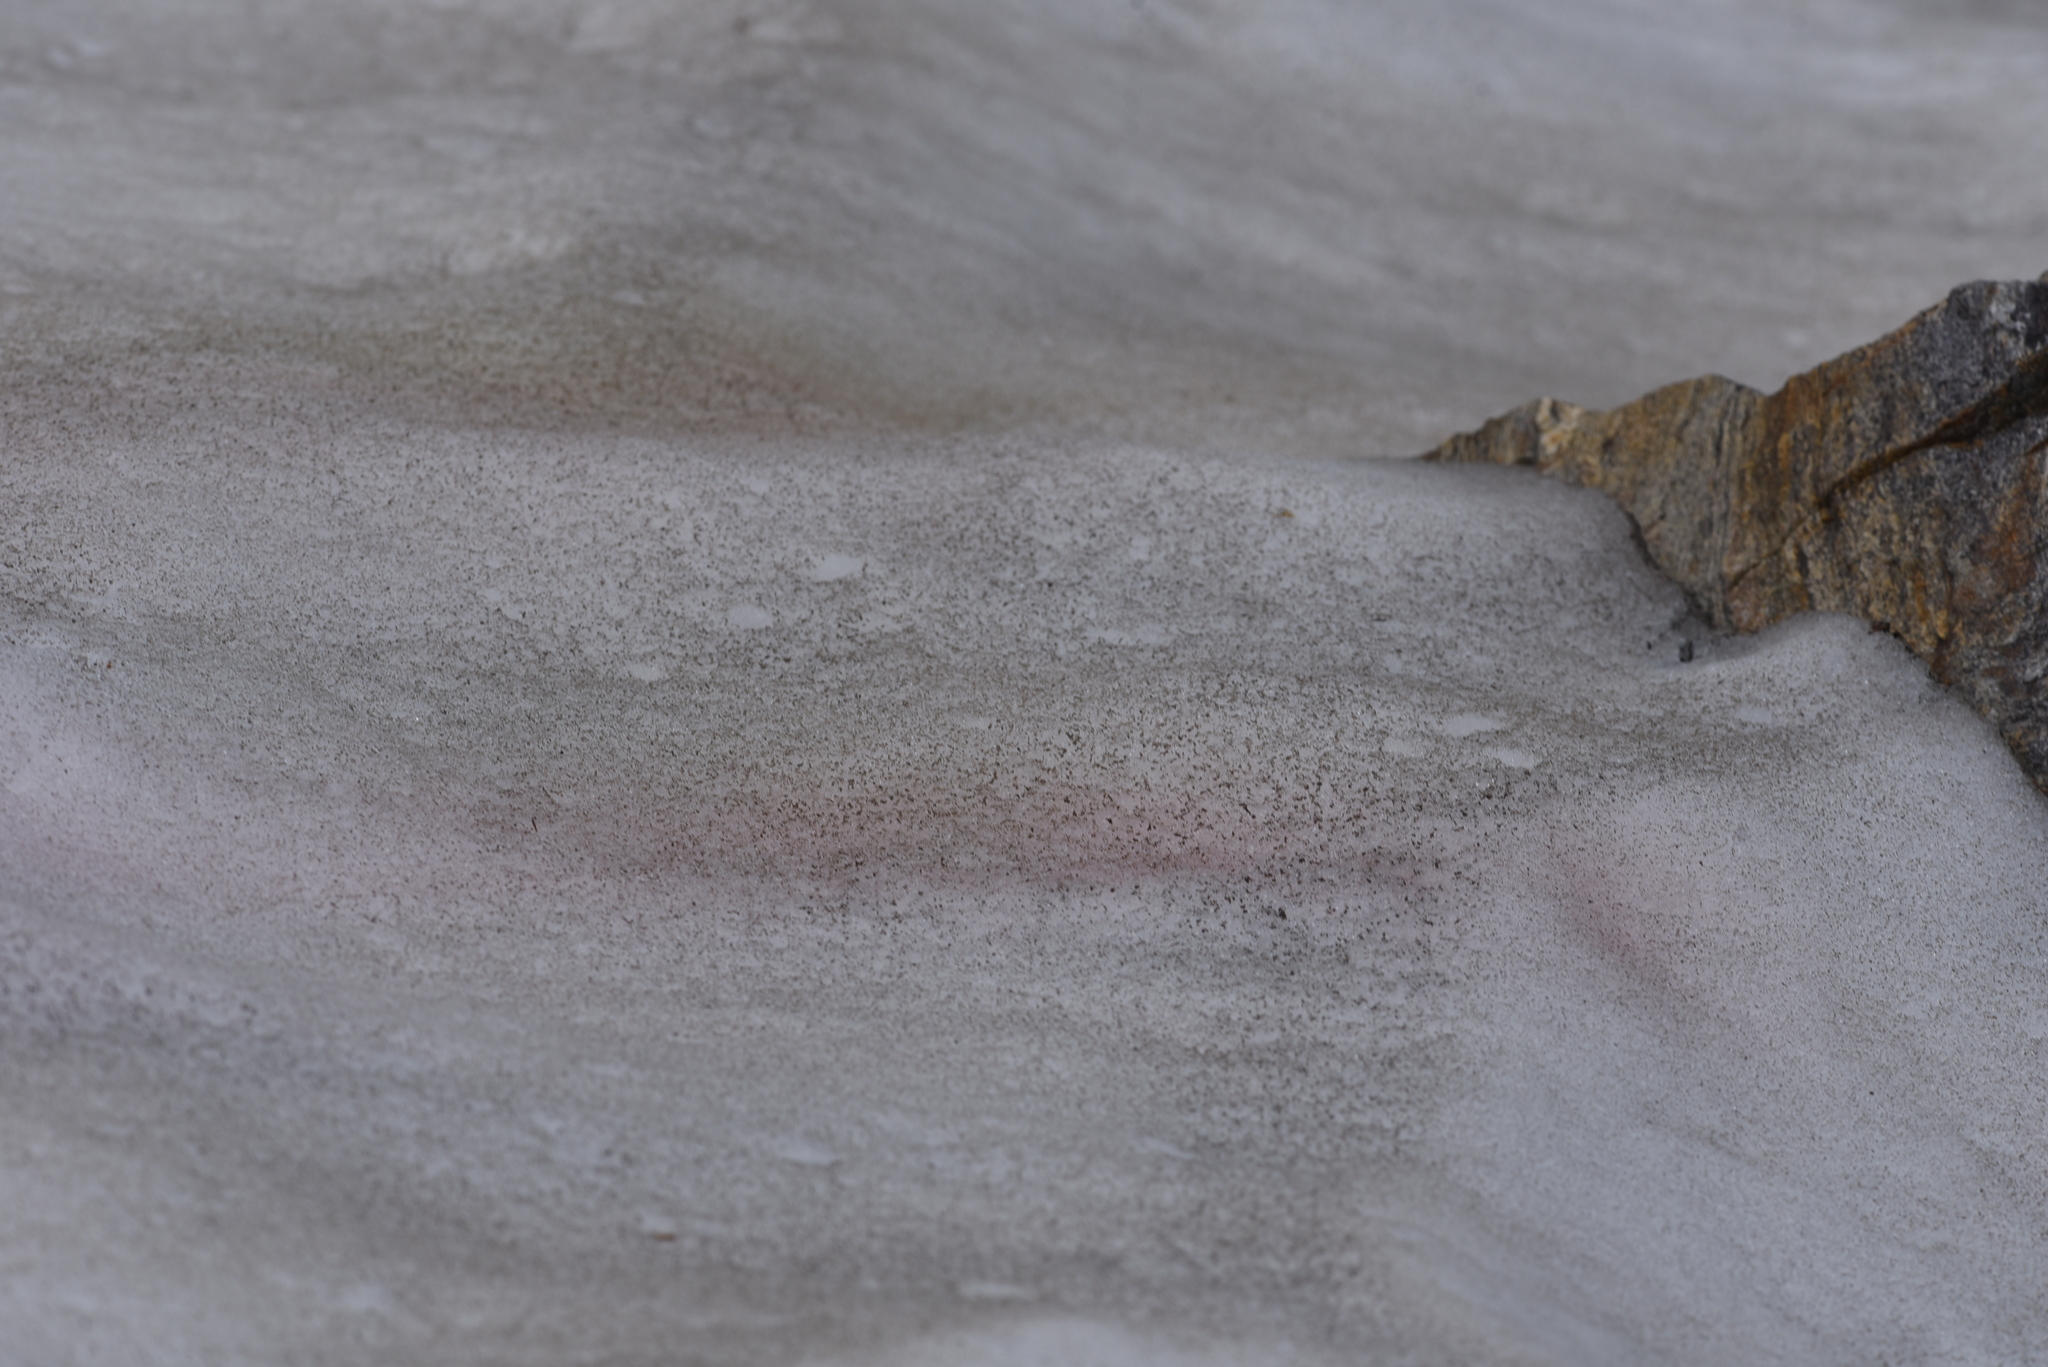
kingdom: Plantae
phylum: Chlorophyta
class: Chlorophyceae
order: Volvocales
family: Chlamydomonadaceae
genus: Chlamydomonas
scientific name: Chlamydomonas nivalis
